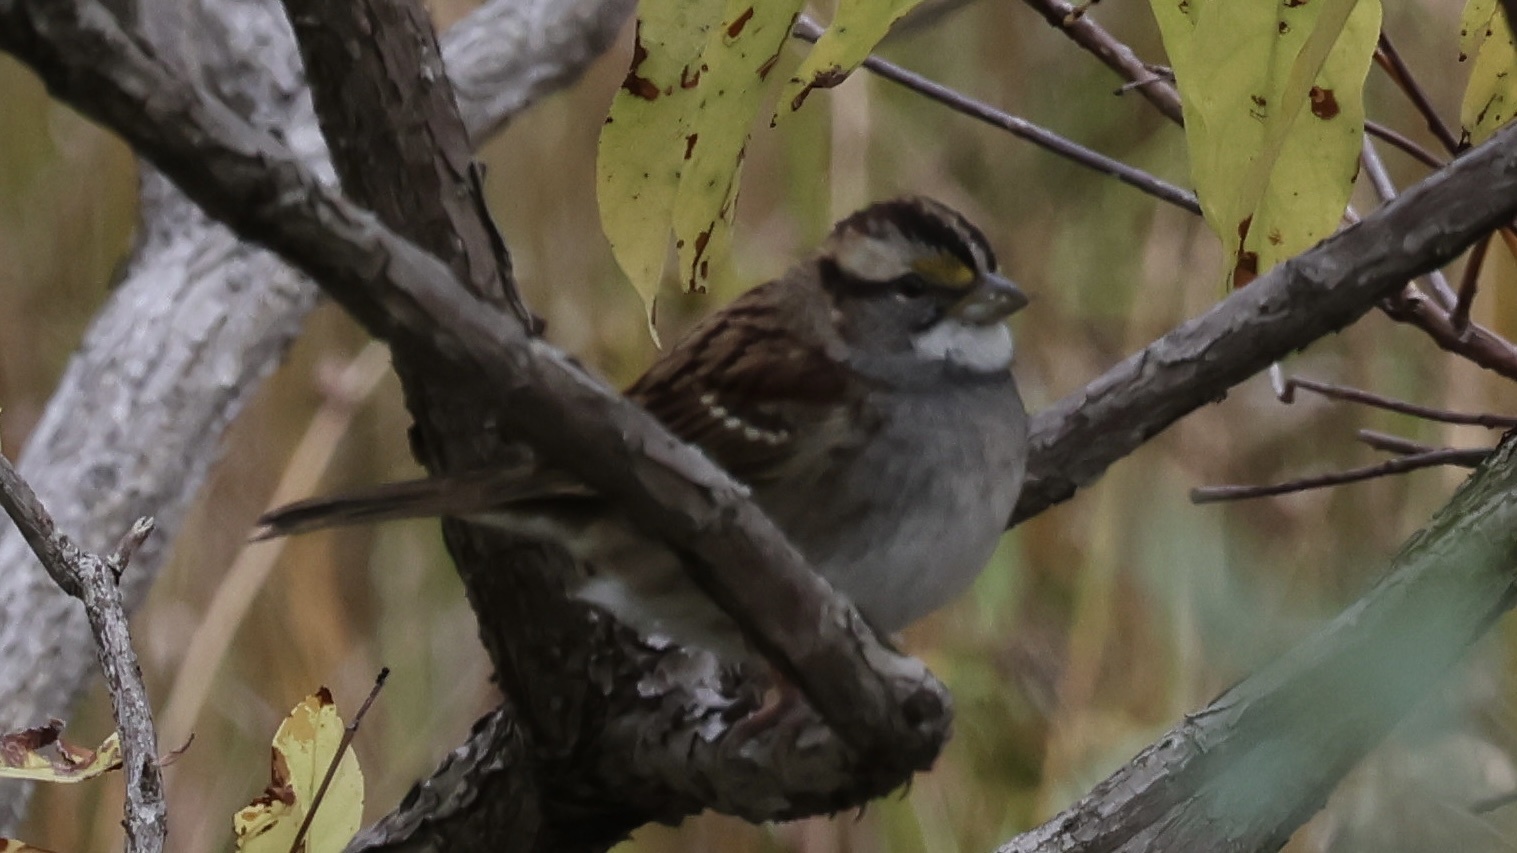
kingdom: Animalia
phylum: Chordata
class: Aves
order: Passeriformes
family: Passerellidae
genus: Zonotrichia
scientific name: Zonotrichia albicollis
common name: White-throated sparrow
